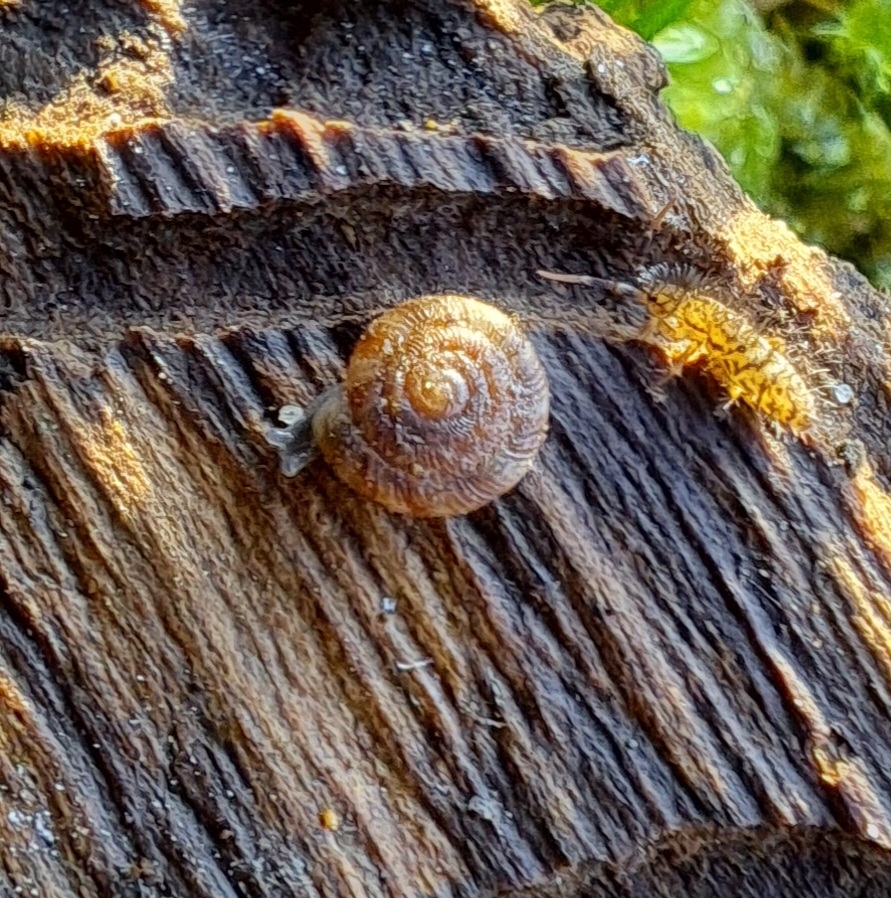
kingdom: Animalia
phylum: Mollusca
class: Gastropoda
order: Stylommatophora
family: Discidae
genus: Discus
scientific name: Discus rotundatus
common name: Rounded snail
